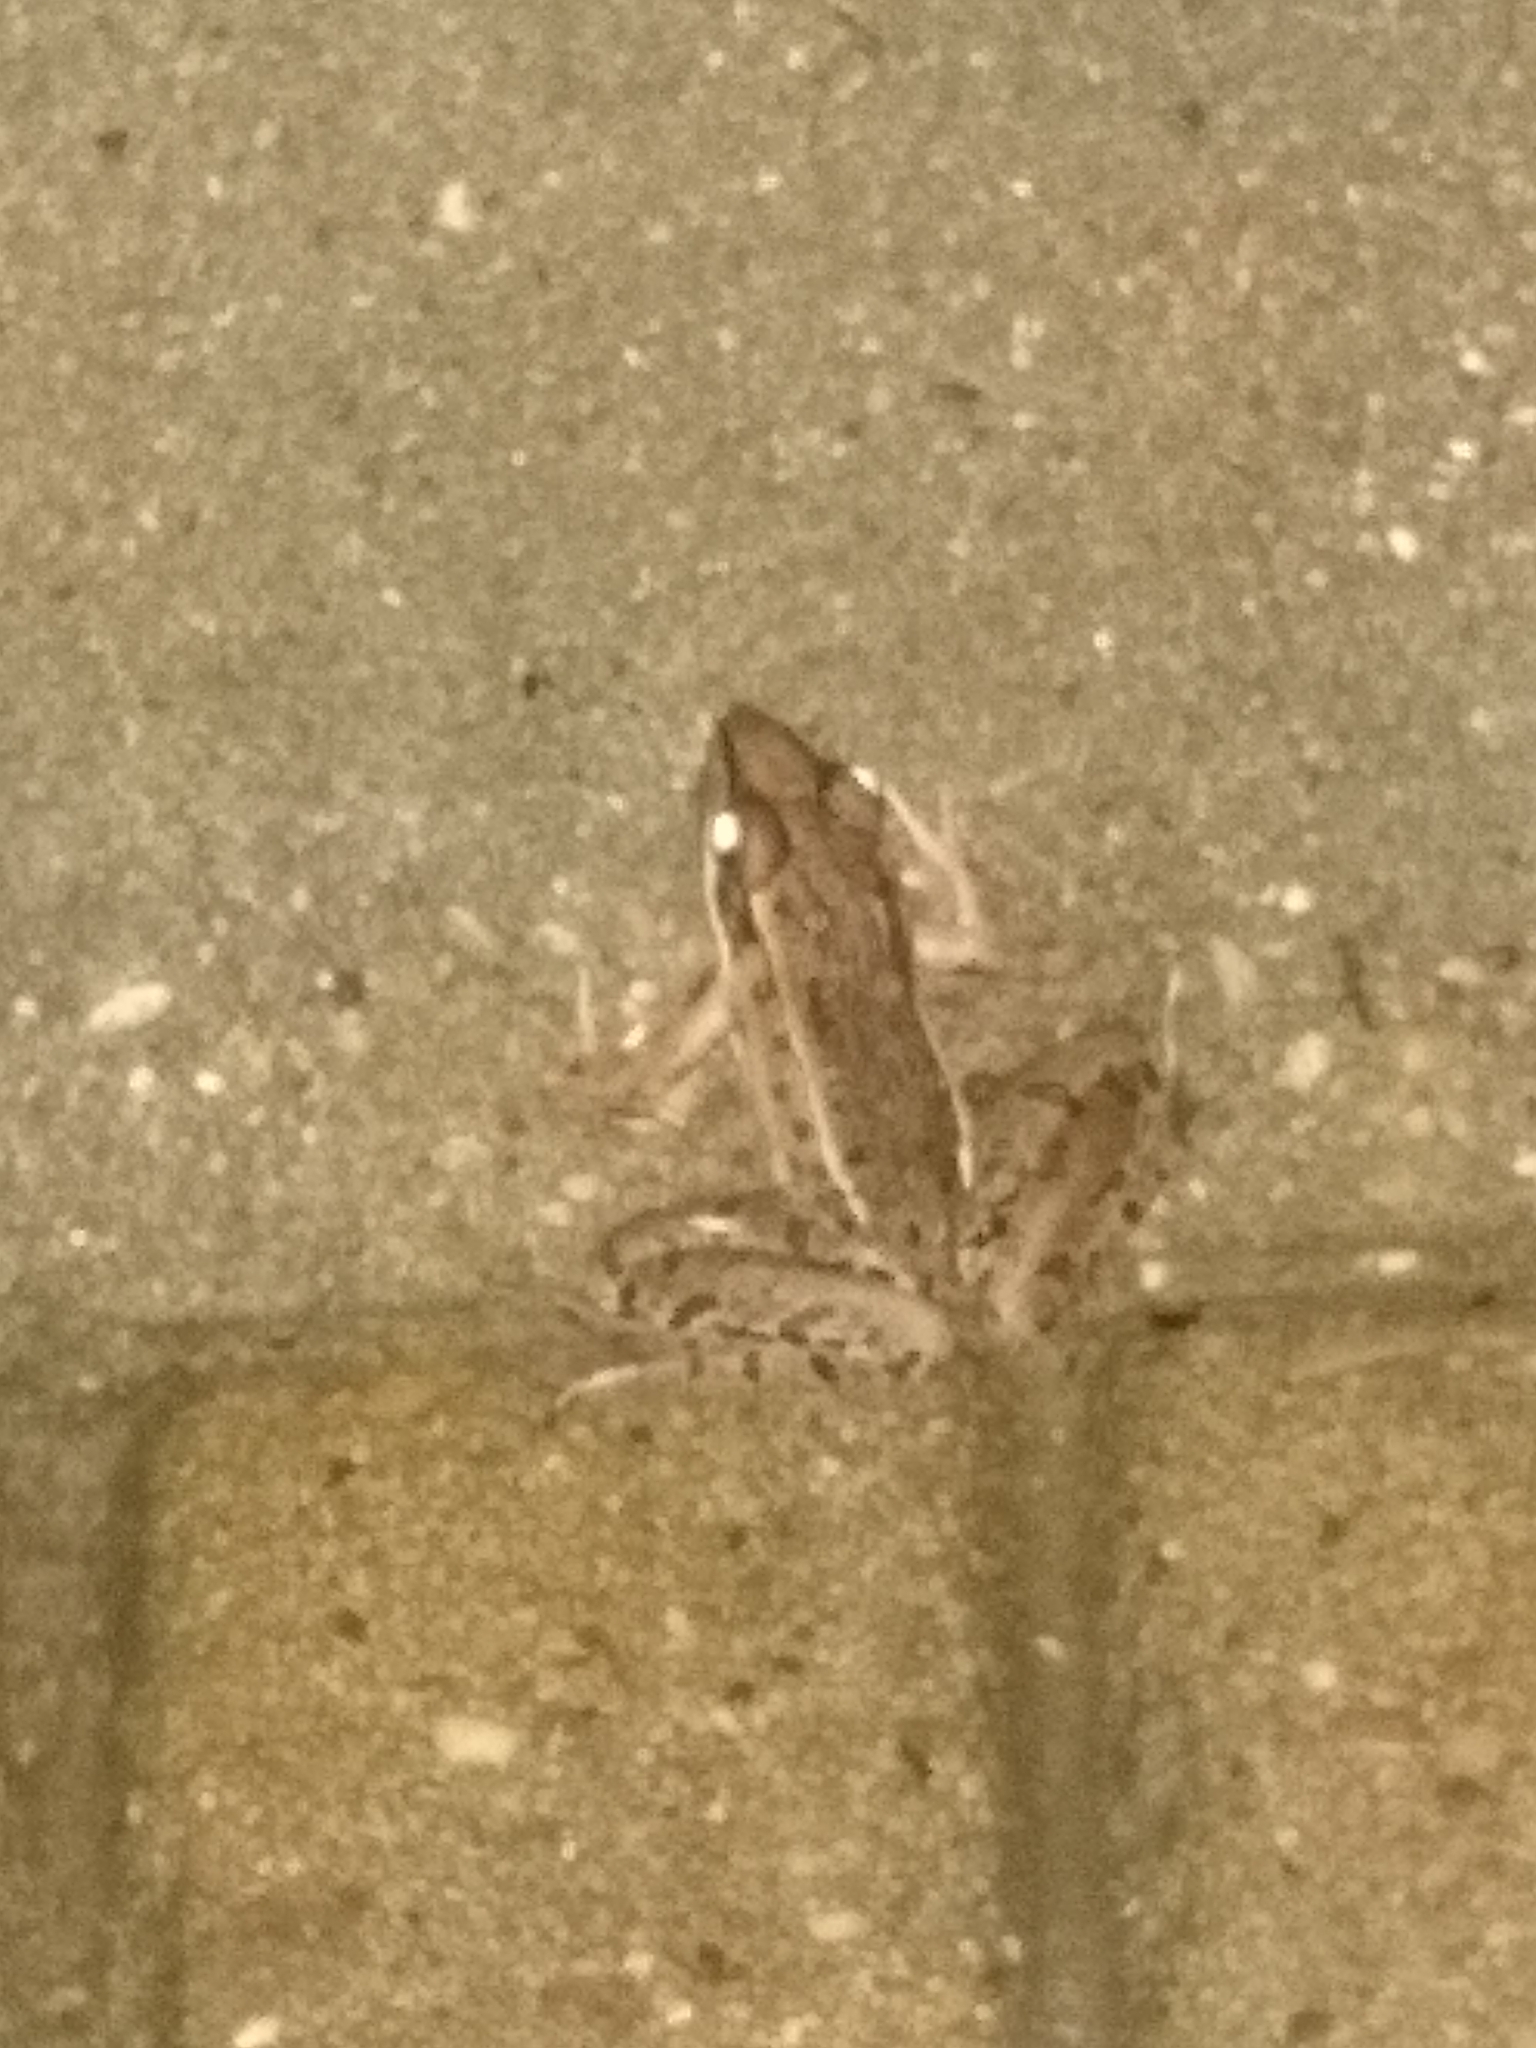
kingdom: Animalia
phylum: Chordata
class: Amphibia
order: Anura
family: Ranidae
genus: Lithobates
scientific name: Lithobates sphenocephalus
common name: Southern leopard frog
